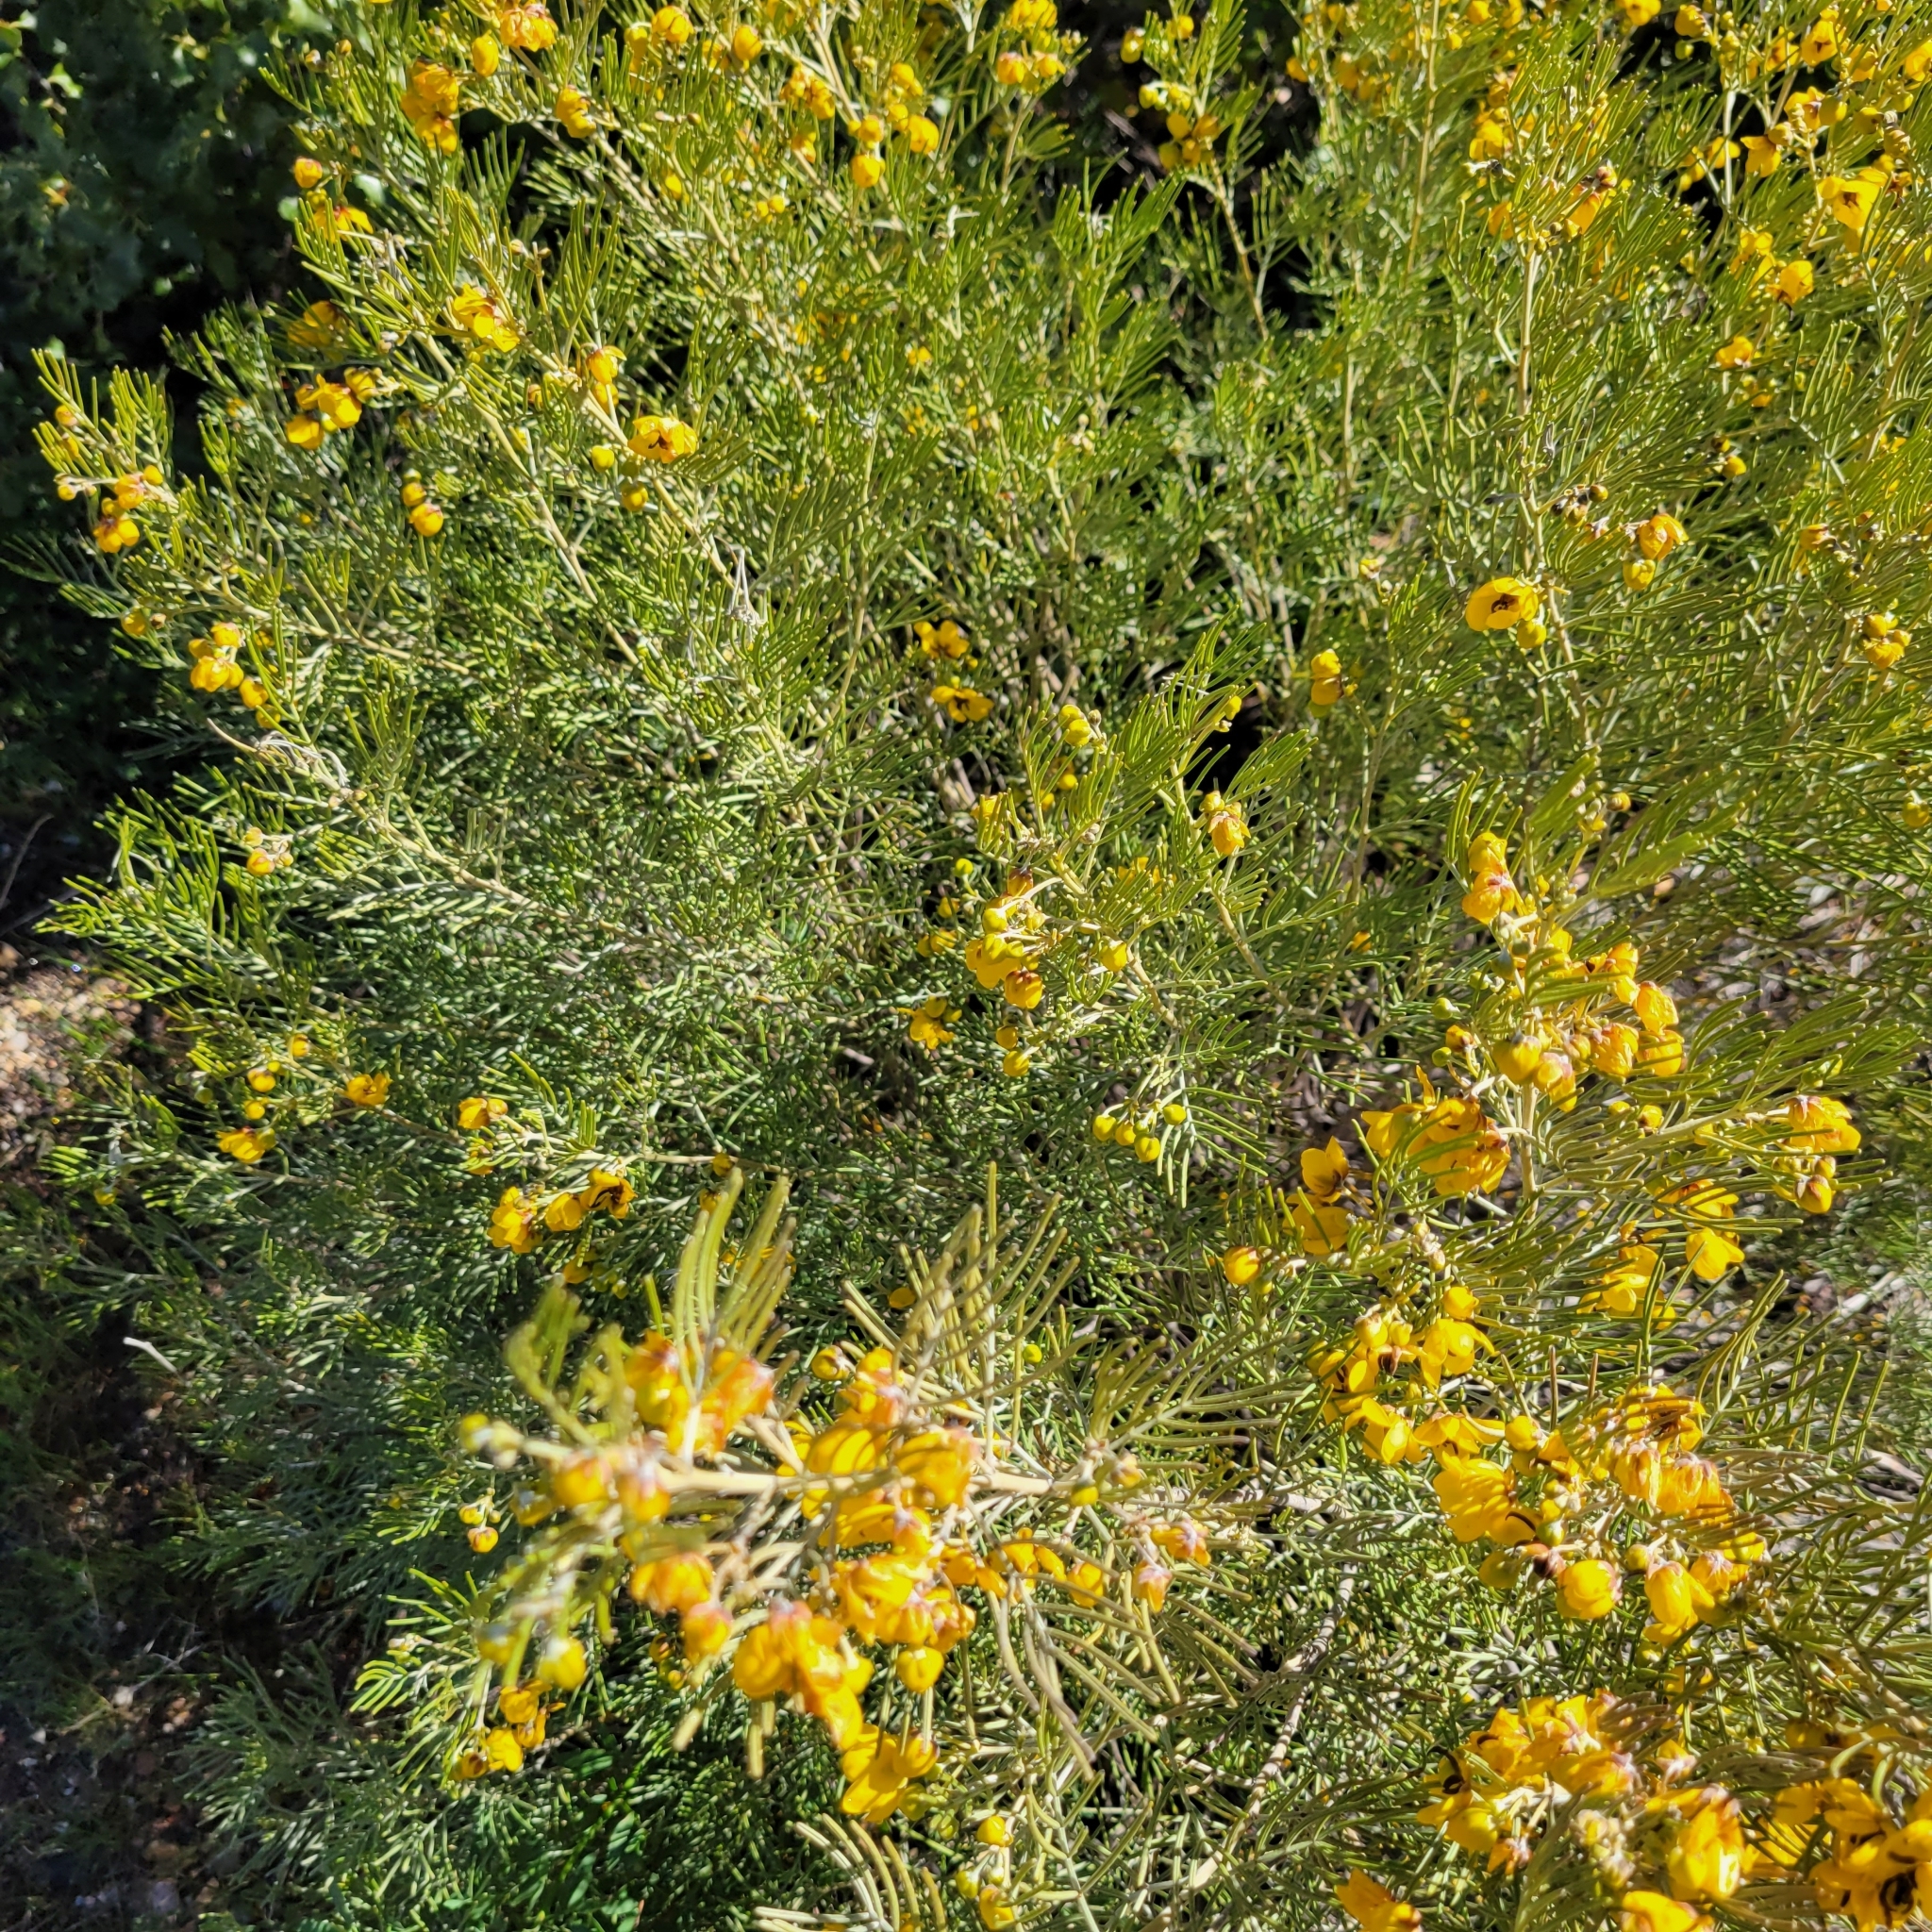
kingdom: Plantae
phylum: Tracheophyta
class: Magnoliopsida
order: Fabales
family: Fabaceae
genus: Senna
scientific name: Senna artemisioides
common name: Burnt-leaved acacia
